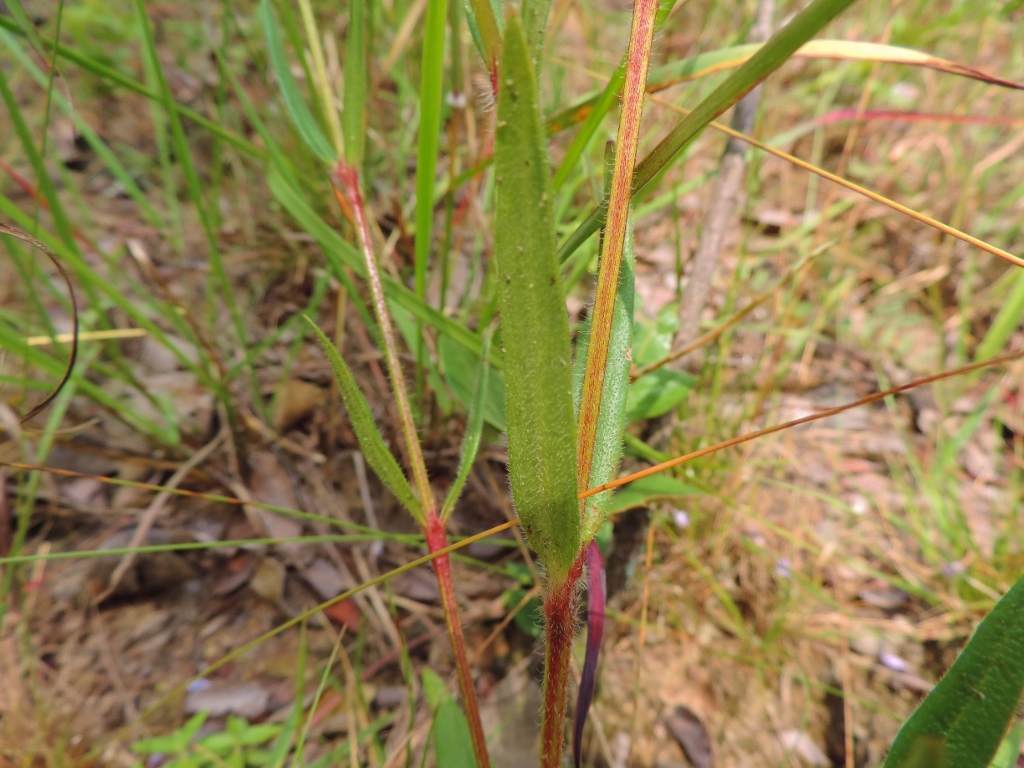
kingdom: Plantae
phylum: Tracheophyta
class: Magnoliopsida
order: Gentianales
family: Rubiaceae
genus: Spermacoce
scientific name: Spermacoce dibrachiata
